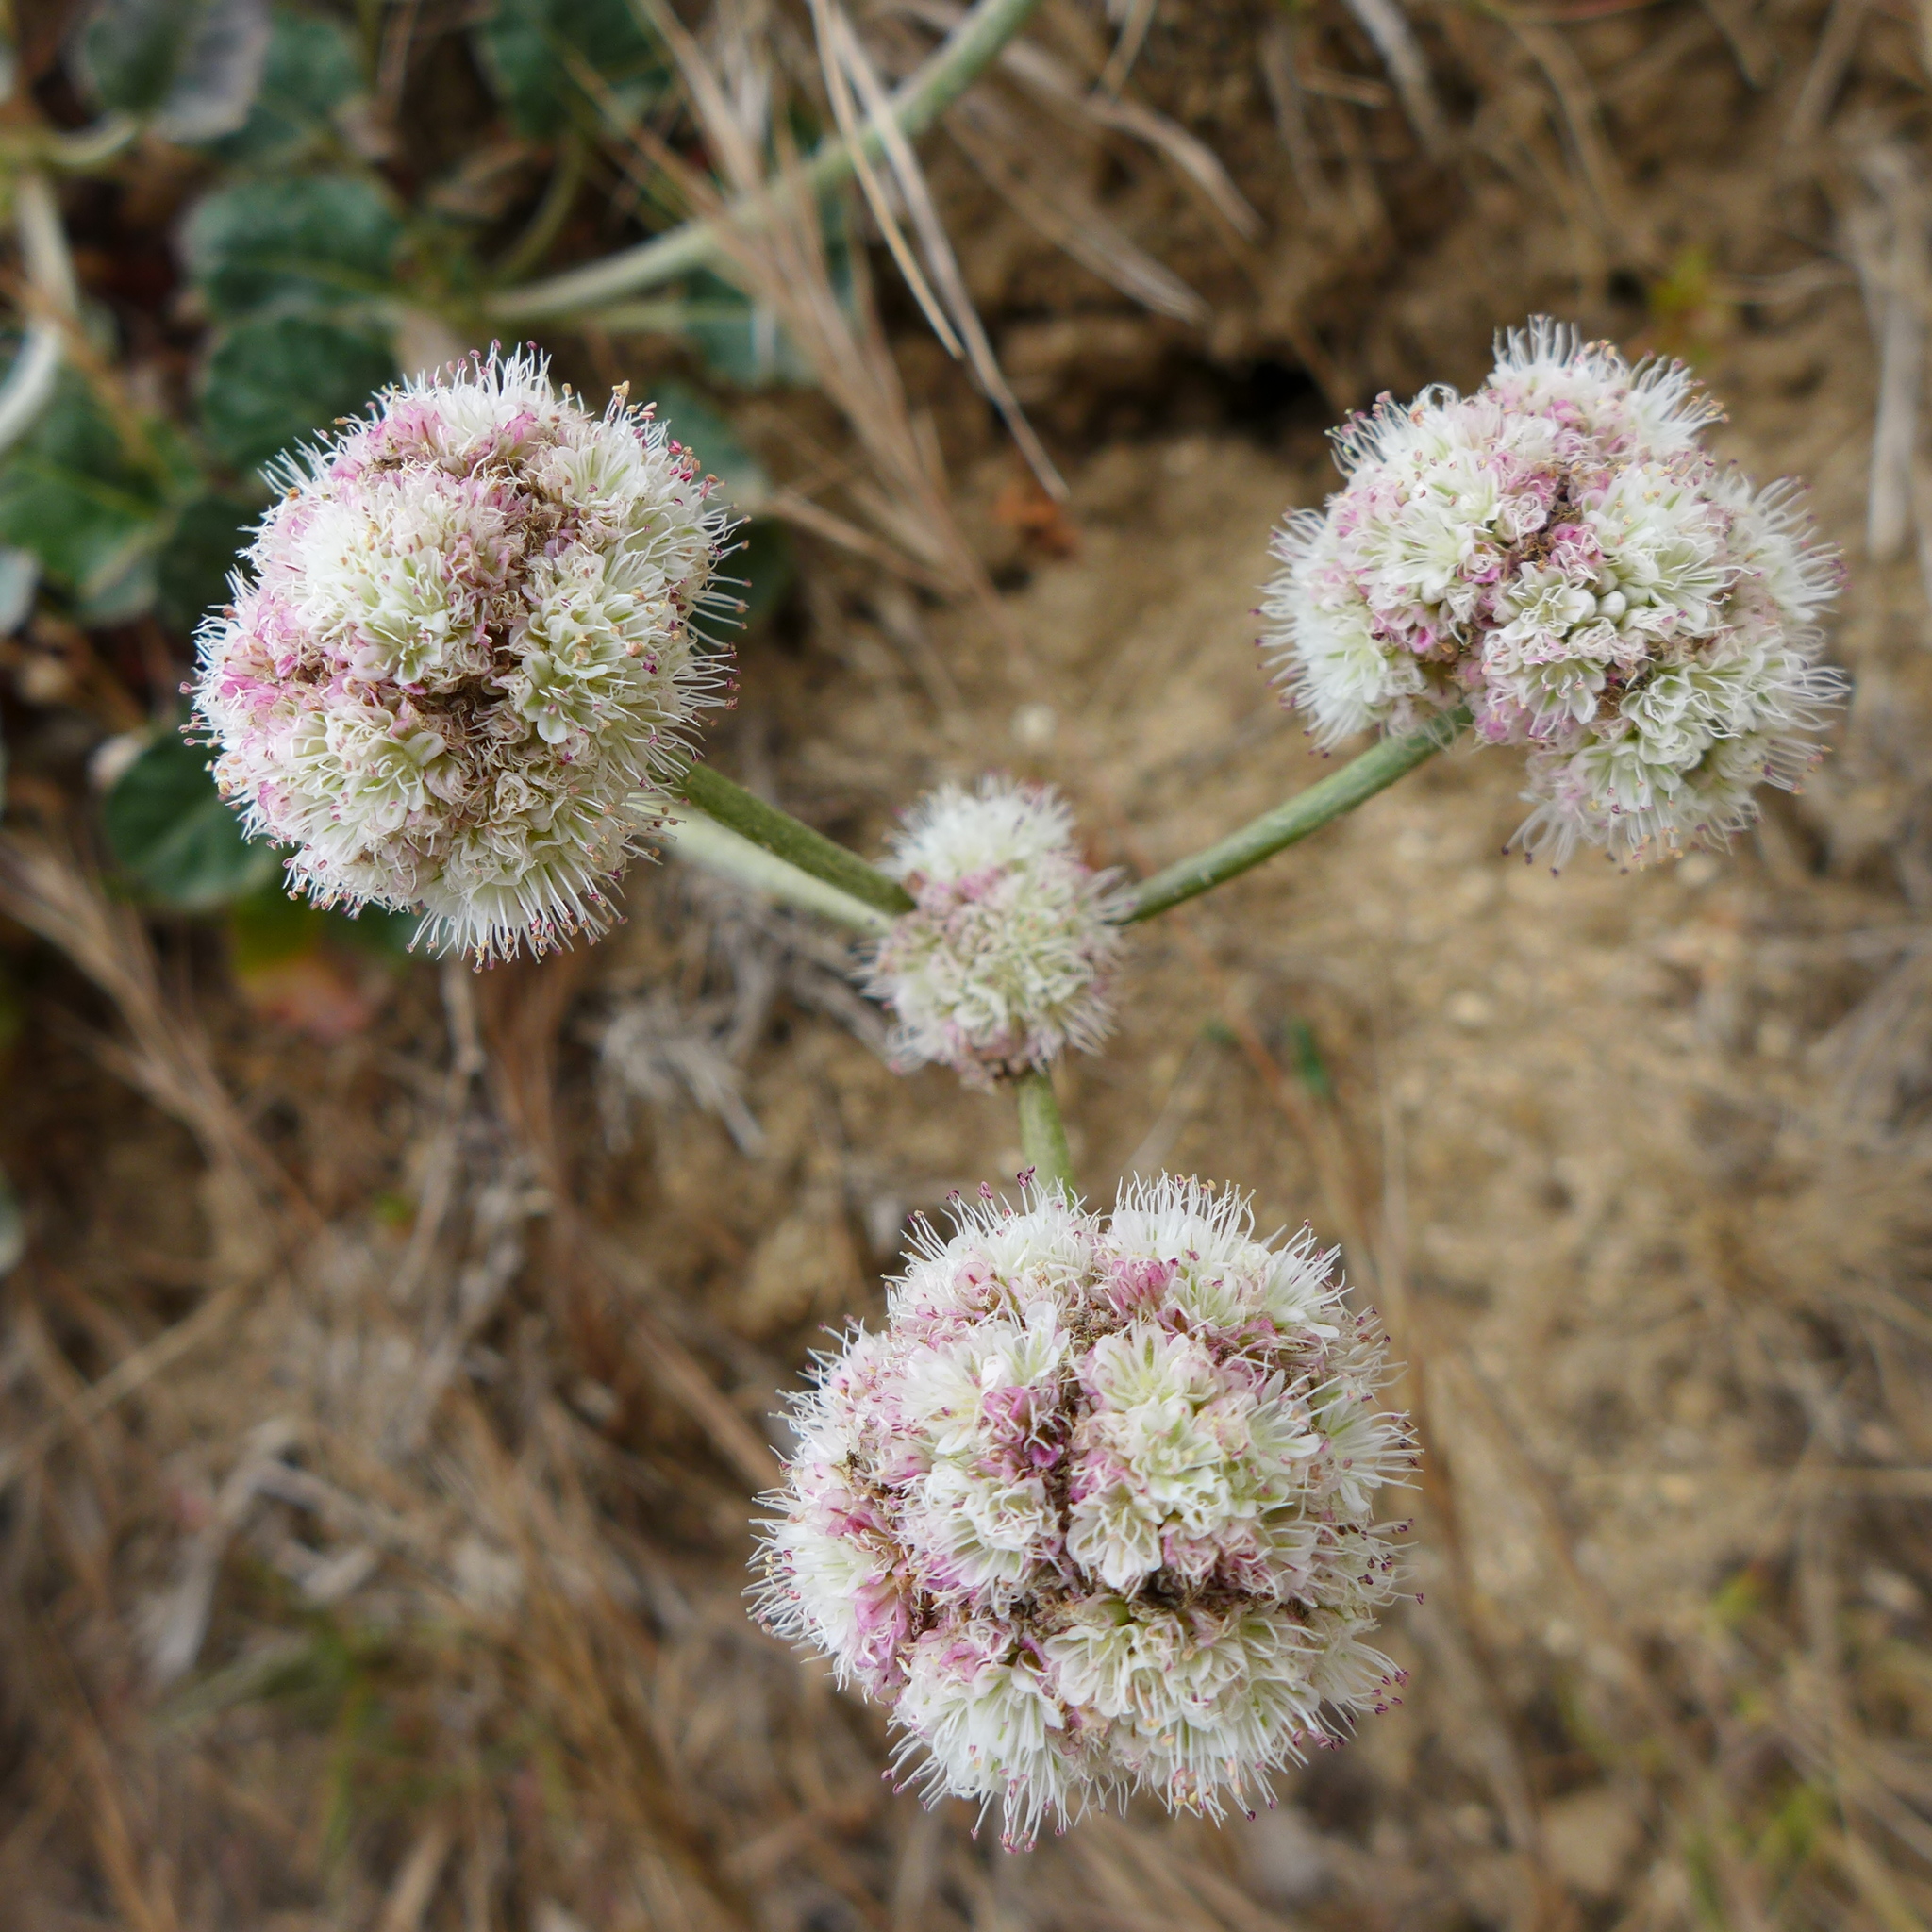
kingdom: Plantae
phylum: Tracheophyta
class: Magnoliopsida
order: Caryophyllales
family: Polygonaceae
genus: Eriogonum
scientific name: Eriogonum latifolium
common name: Seaside wild buckwheat
